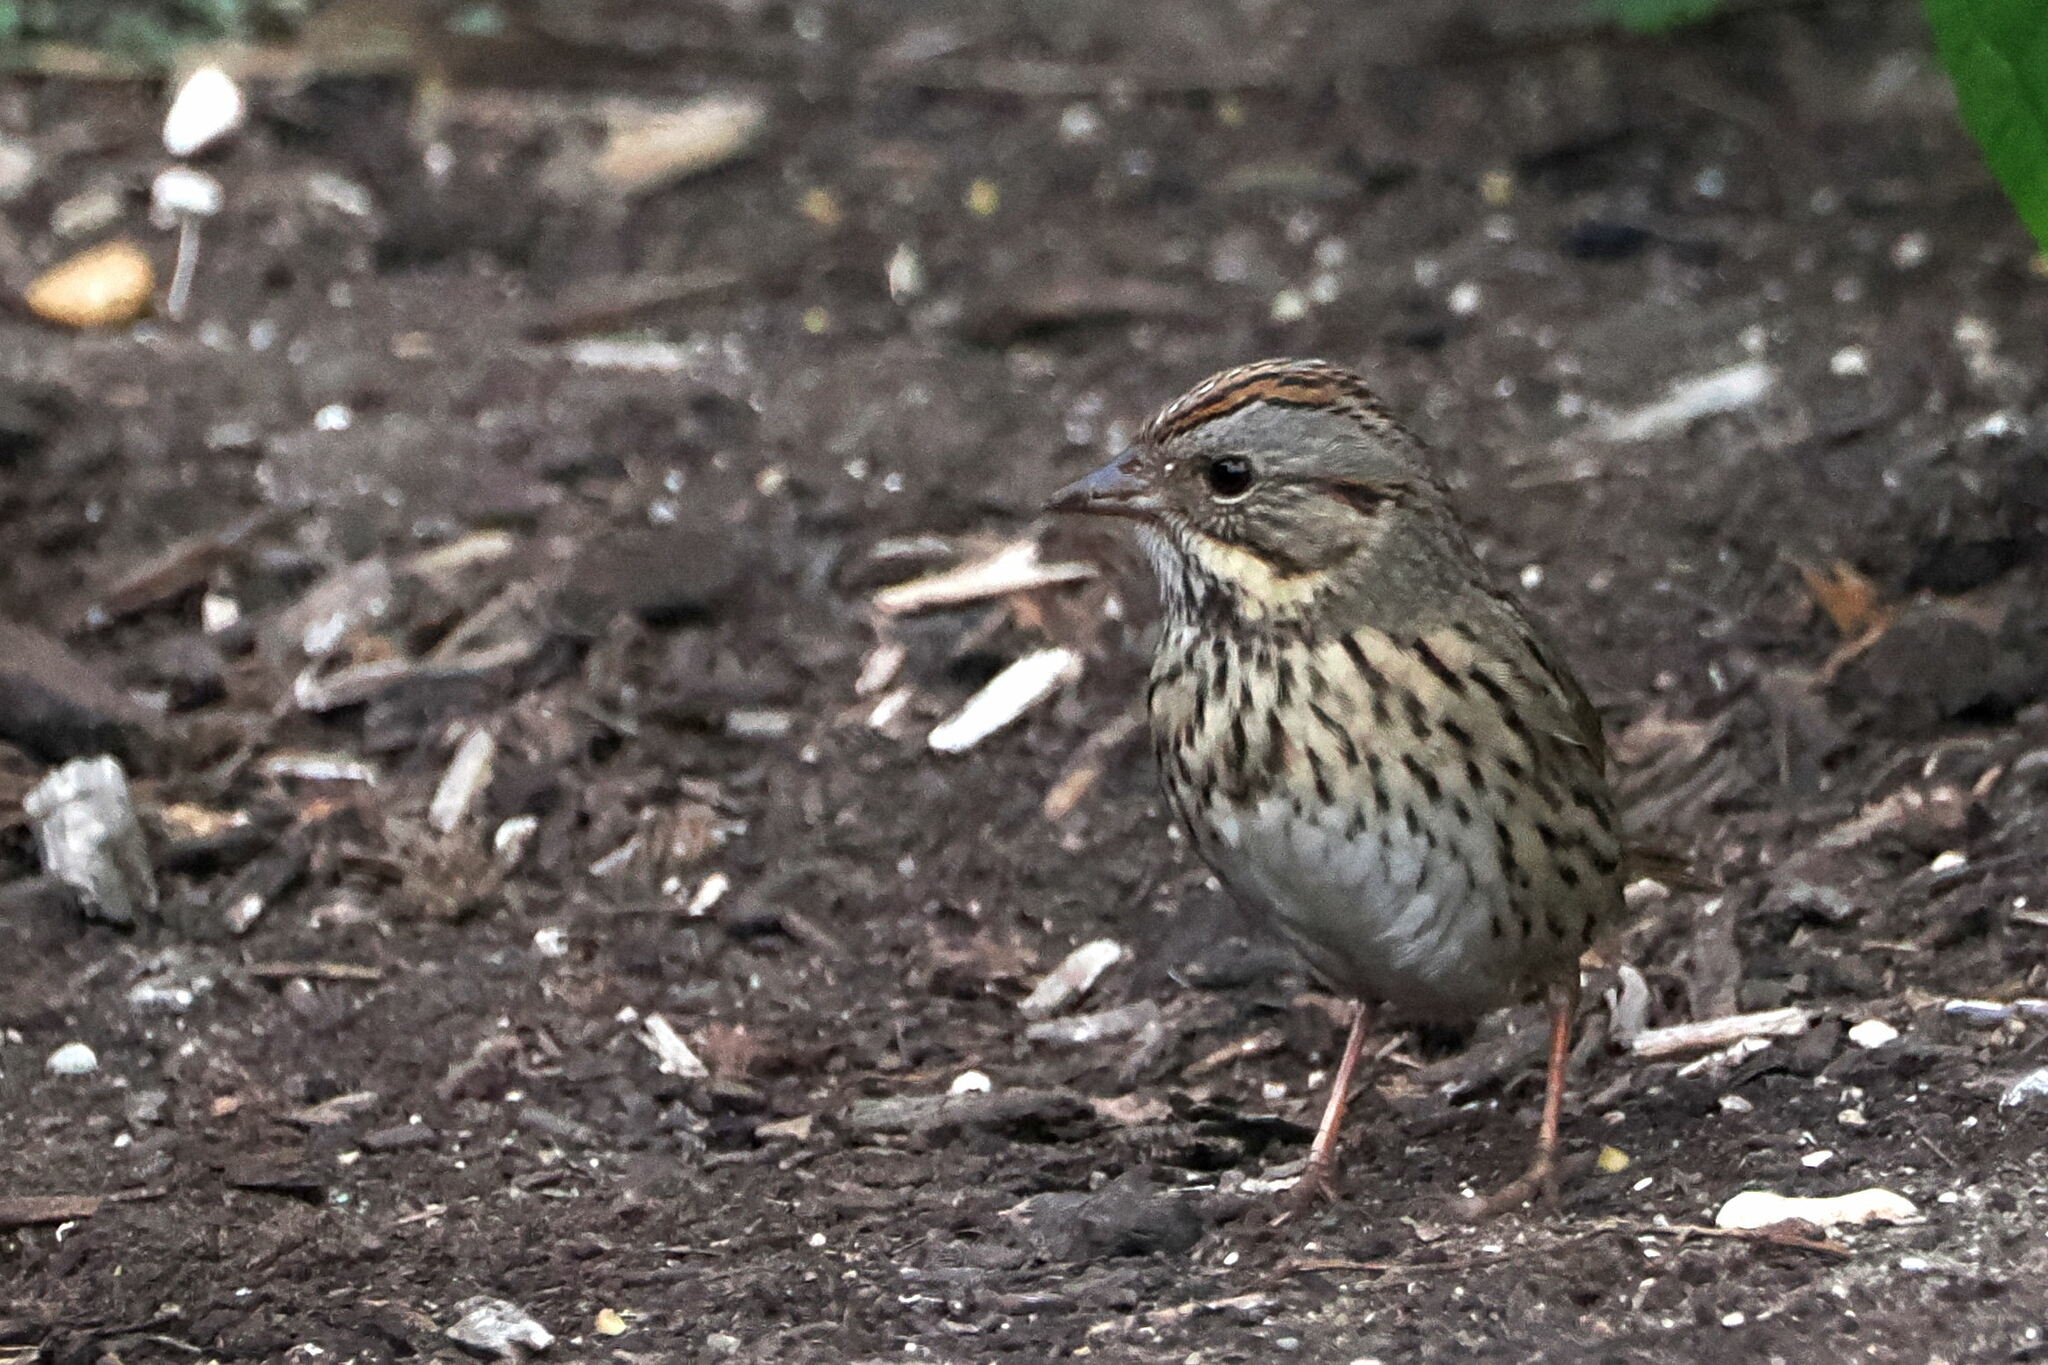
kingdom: Animalia
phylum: Chordata
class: Aves
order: Passeriformes
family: Passerellidae
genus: Melospiza
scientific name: Melospiza lincolnii
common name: Lincoln's sparrow
